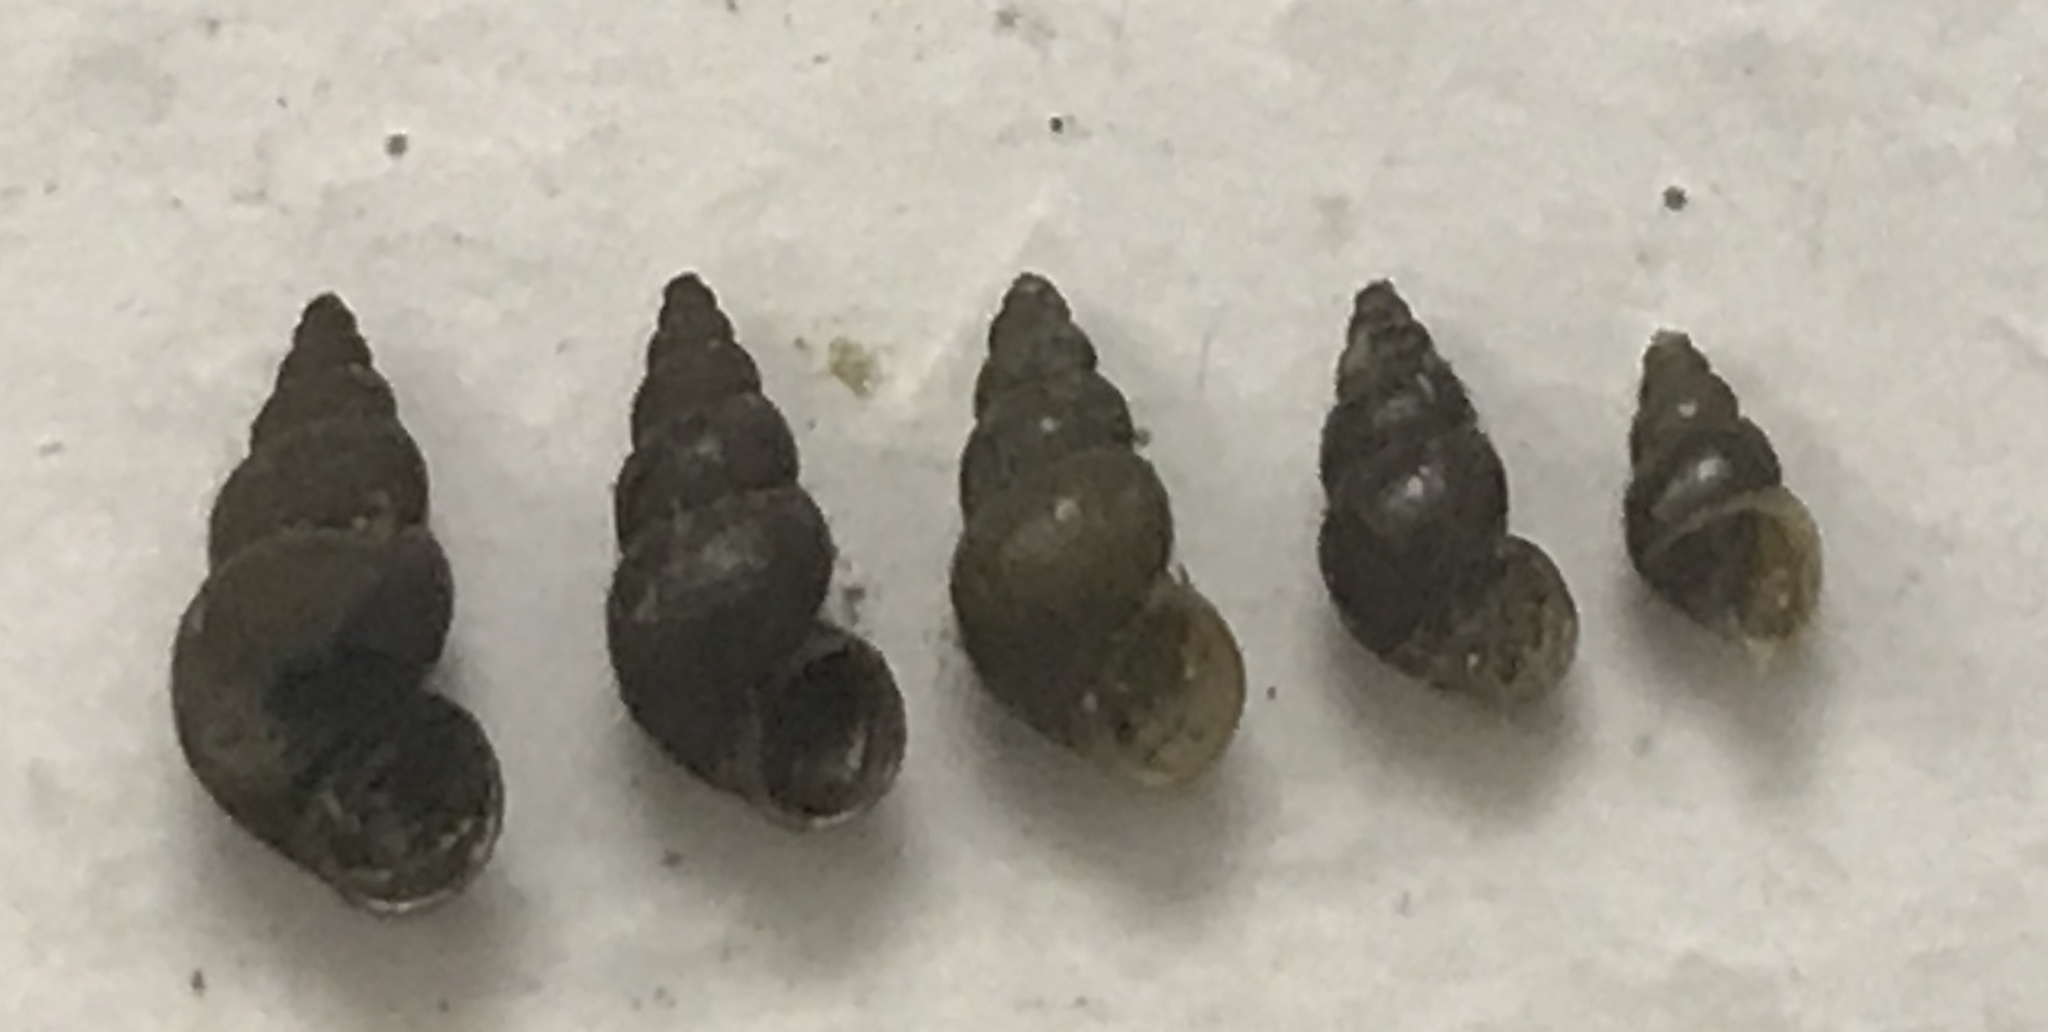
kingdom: Animalia
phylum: Mollusca
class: Gastropoda
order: Littorinimorpha
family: Tateidae
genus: Potamopyrgus
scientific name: Potamopyrgus antipodarum
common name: Jenkins' spire snail
